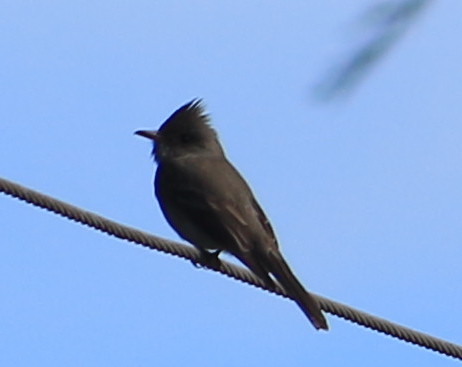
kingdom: Animalia
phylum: Chordata
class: Aves
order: Passeriformes
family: Tyrannidae
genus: Contopus
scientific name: Contopus pertinax
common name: Greater pewee
